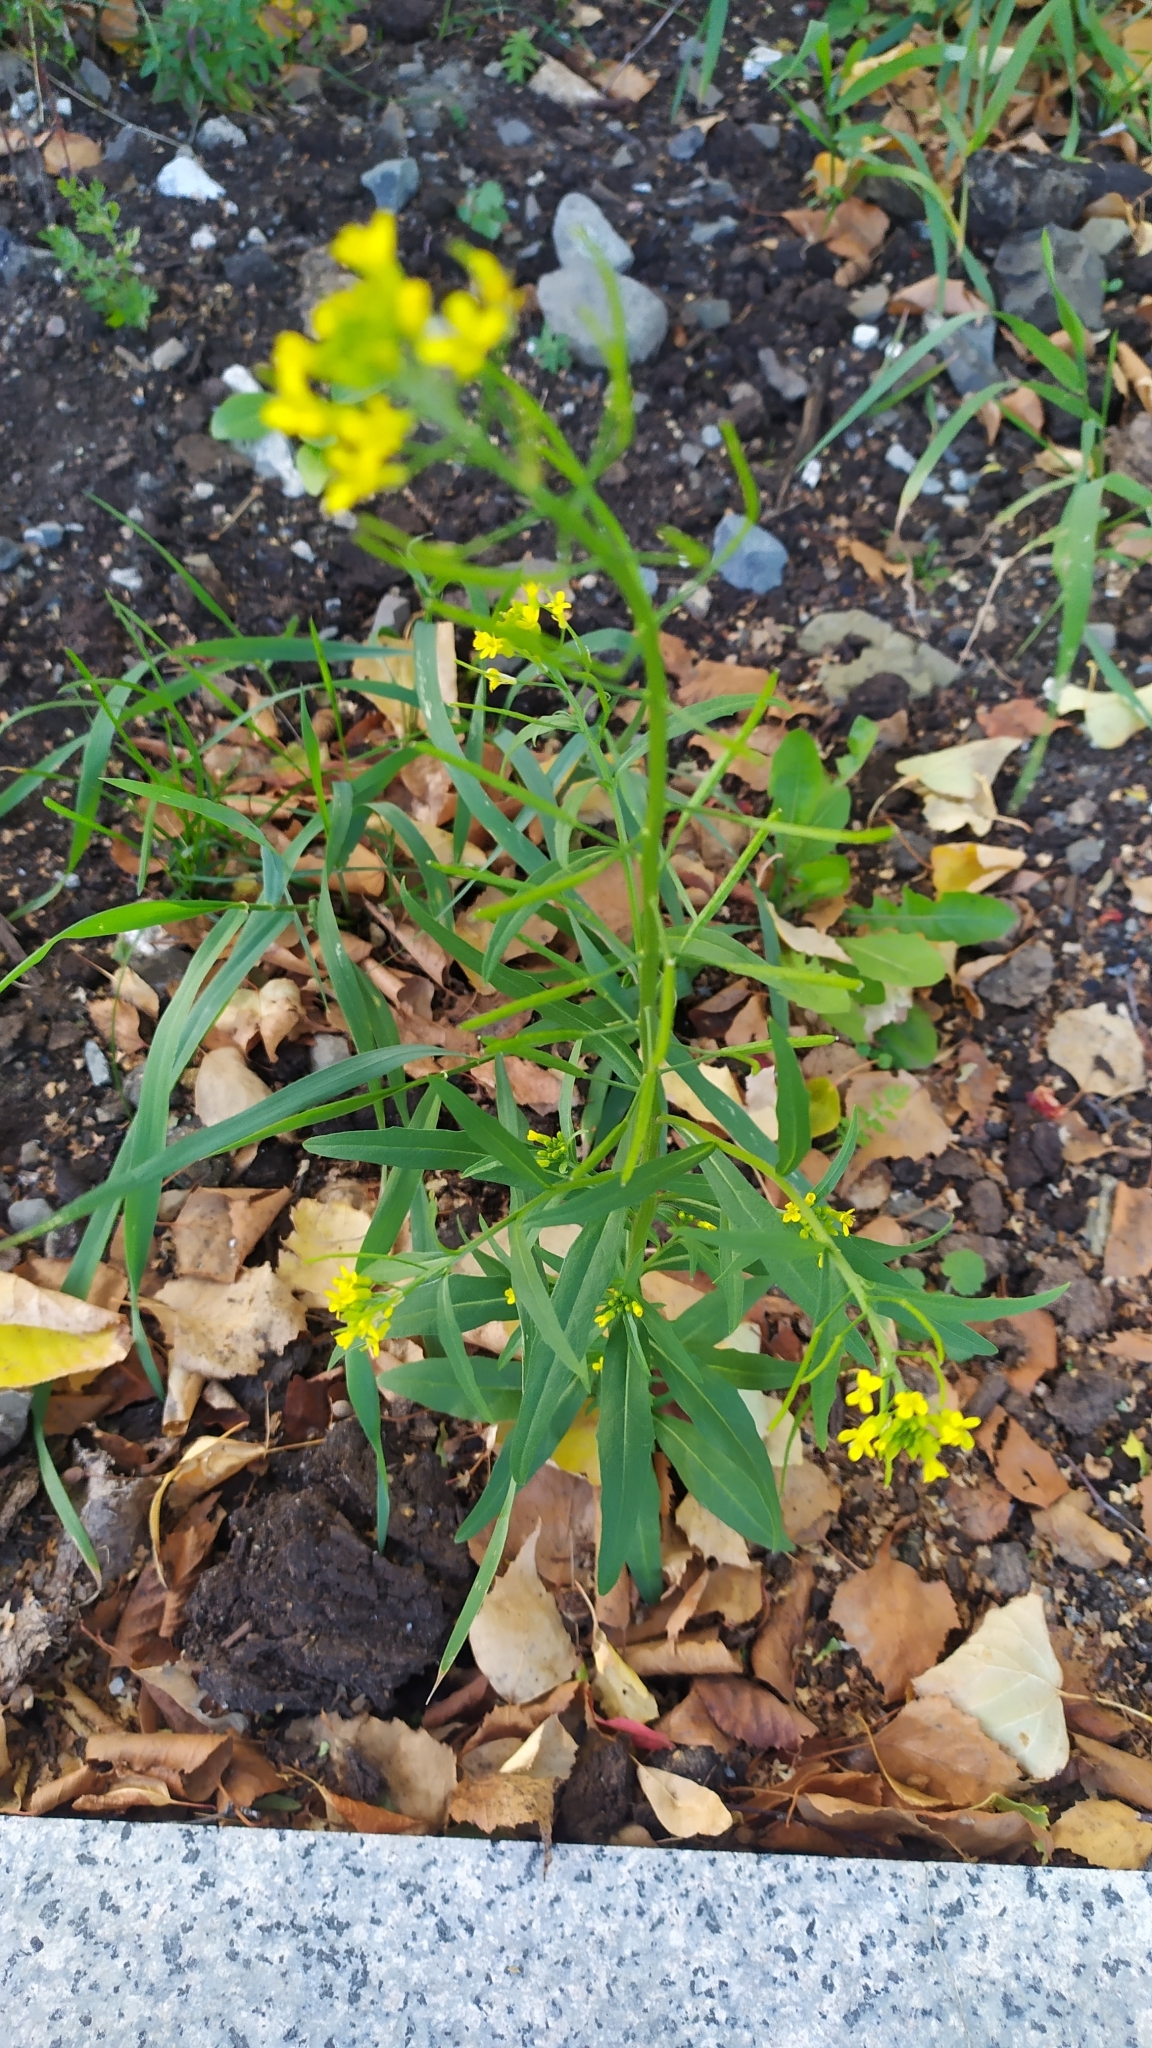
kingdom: Plantae
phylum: Tracheophyta
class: Magnoliopsida
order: Brassicales
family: Brassicaceae
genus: Erysimum
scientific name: Erysimum cheiranthoides
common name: Treacle mustard
